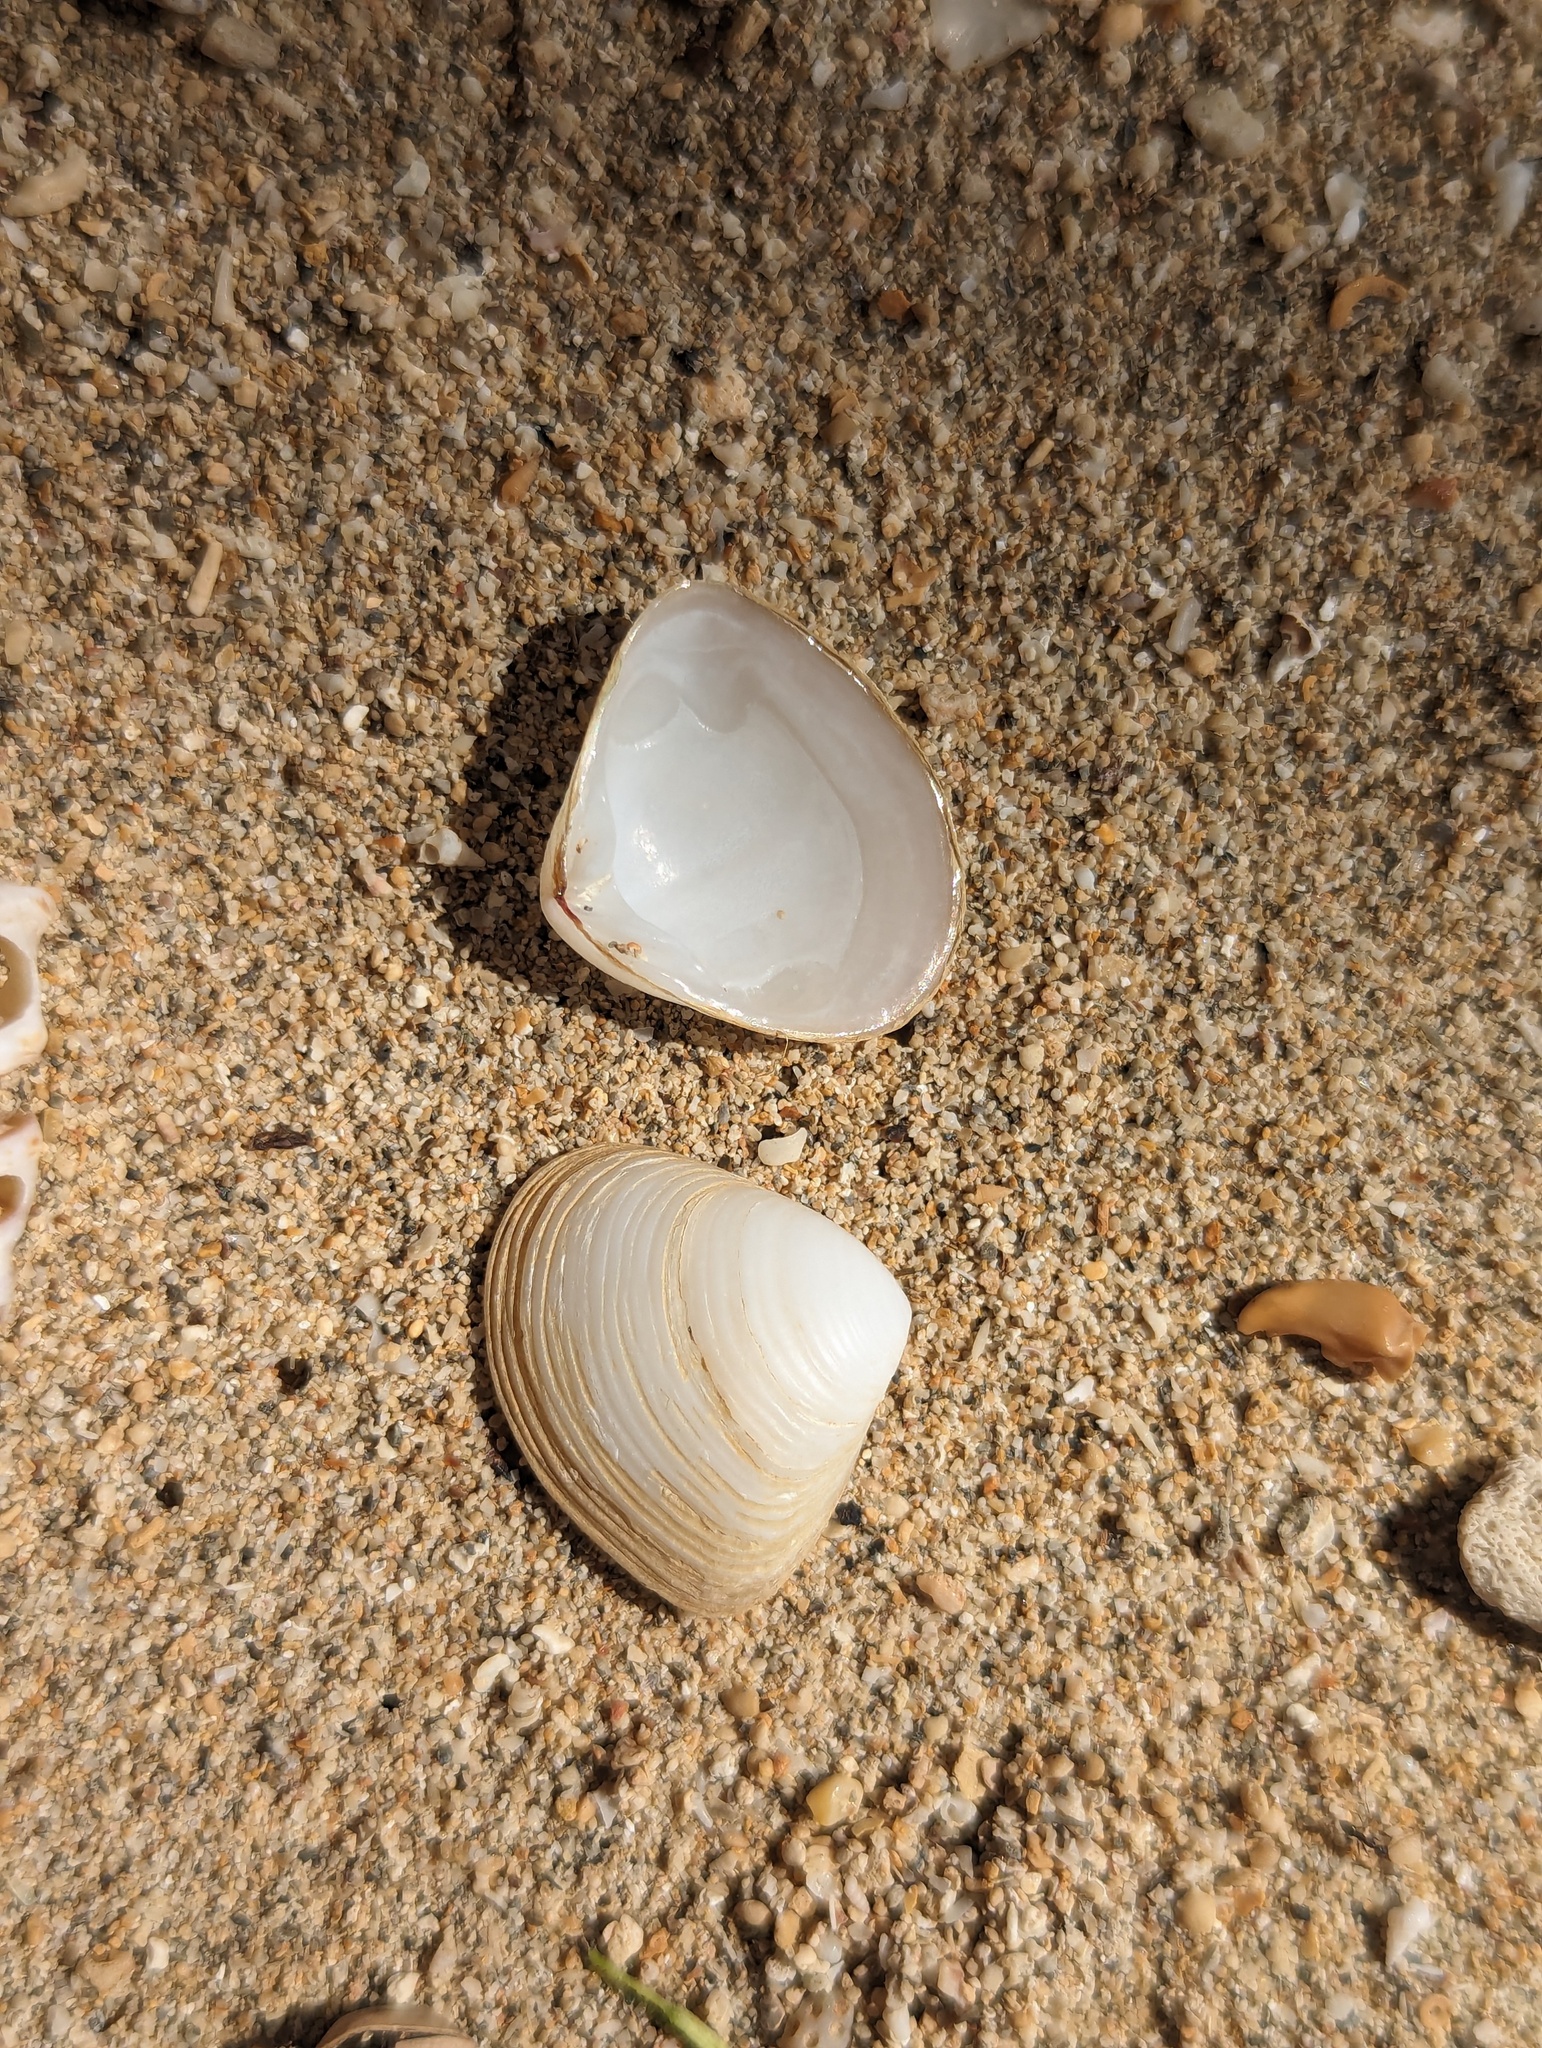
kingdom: Animalia
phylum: Mollusca
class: Bivalvia
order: Venerida
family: Mesodesmatidae
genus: Atactodea
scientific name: Atactodea striata
